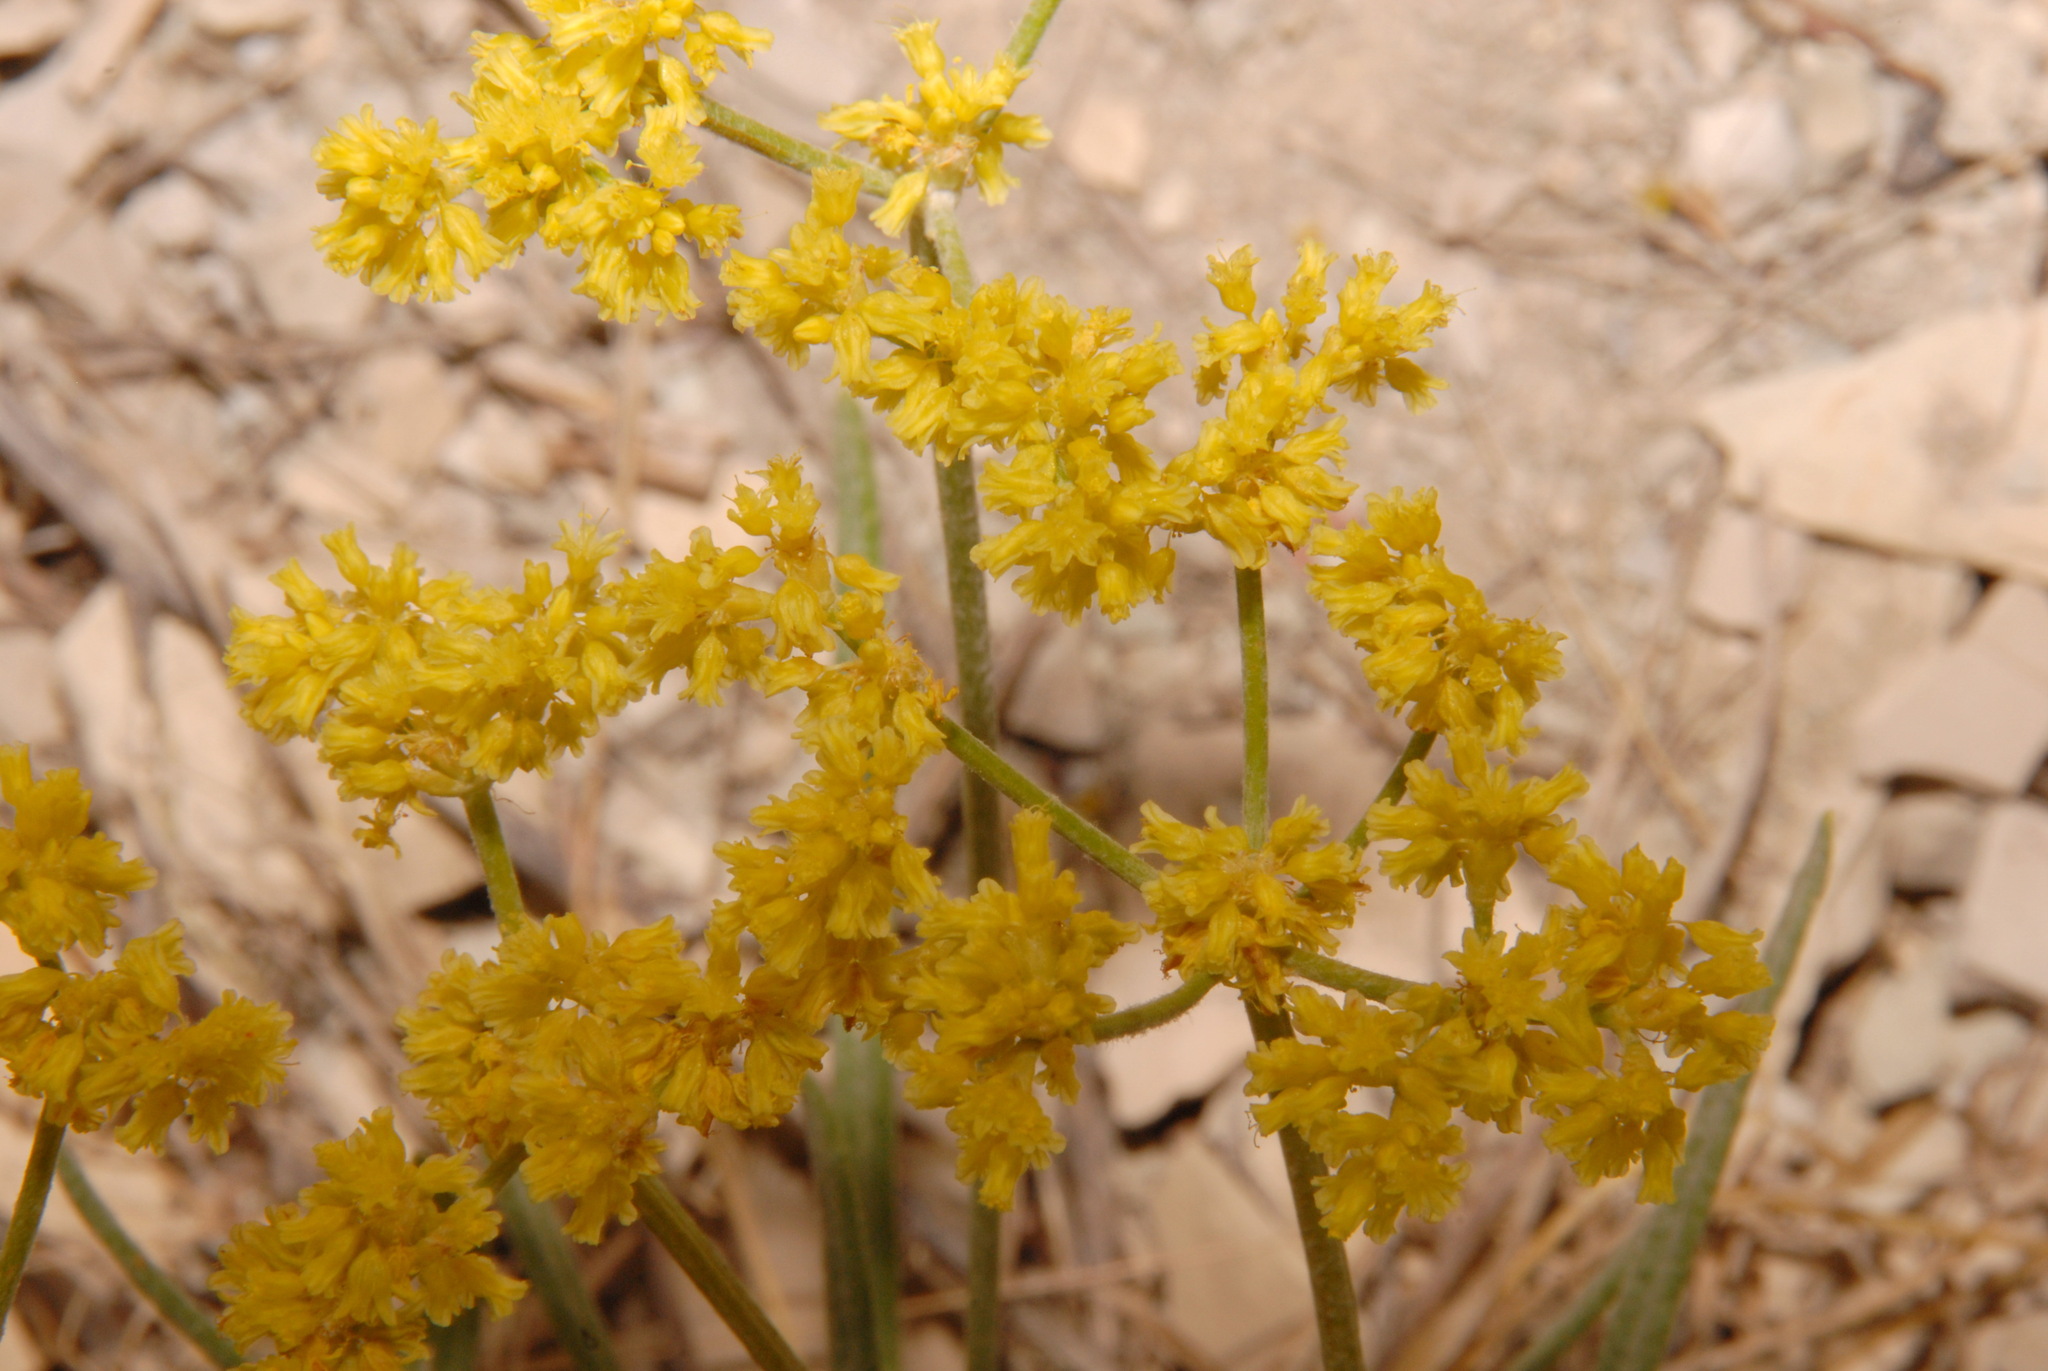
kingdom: Plantae
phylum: Tracheophyta
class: Magnoliopsida
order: Caryophyllales
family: Polygonaceae
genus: Eriogonum
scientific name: Eriogonum brevicaule
